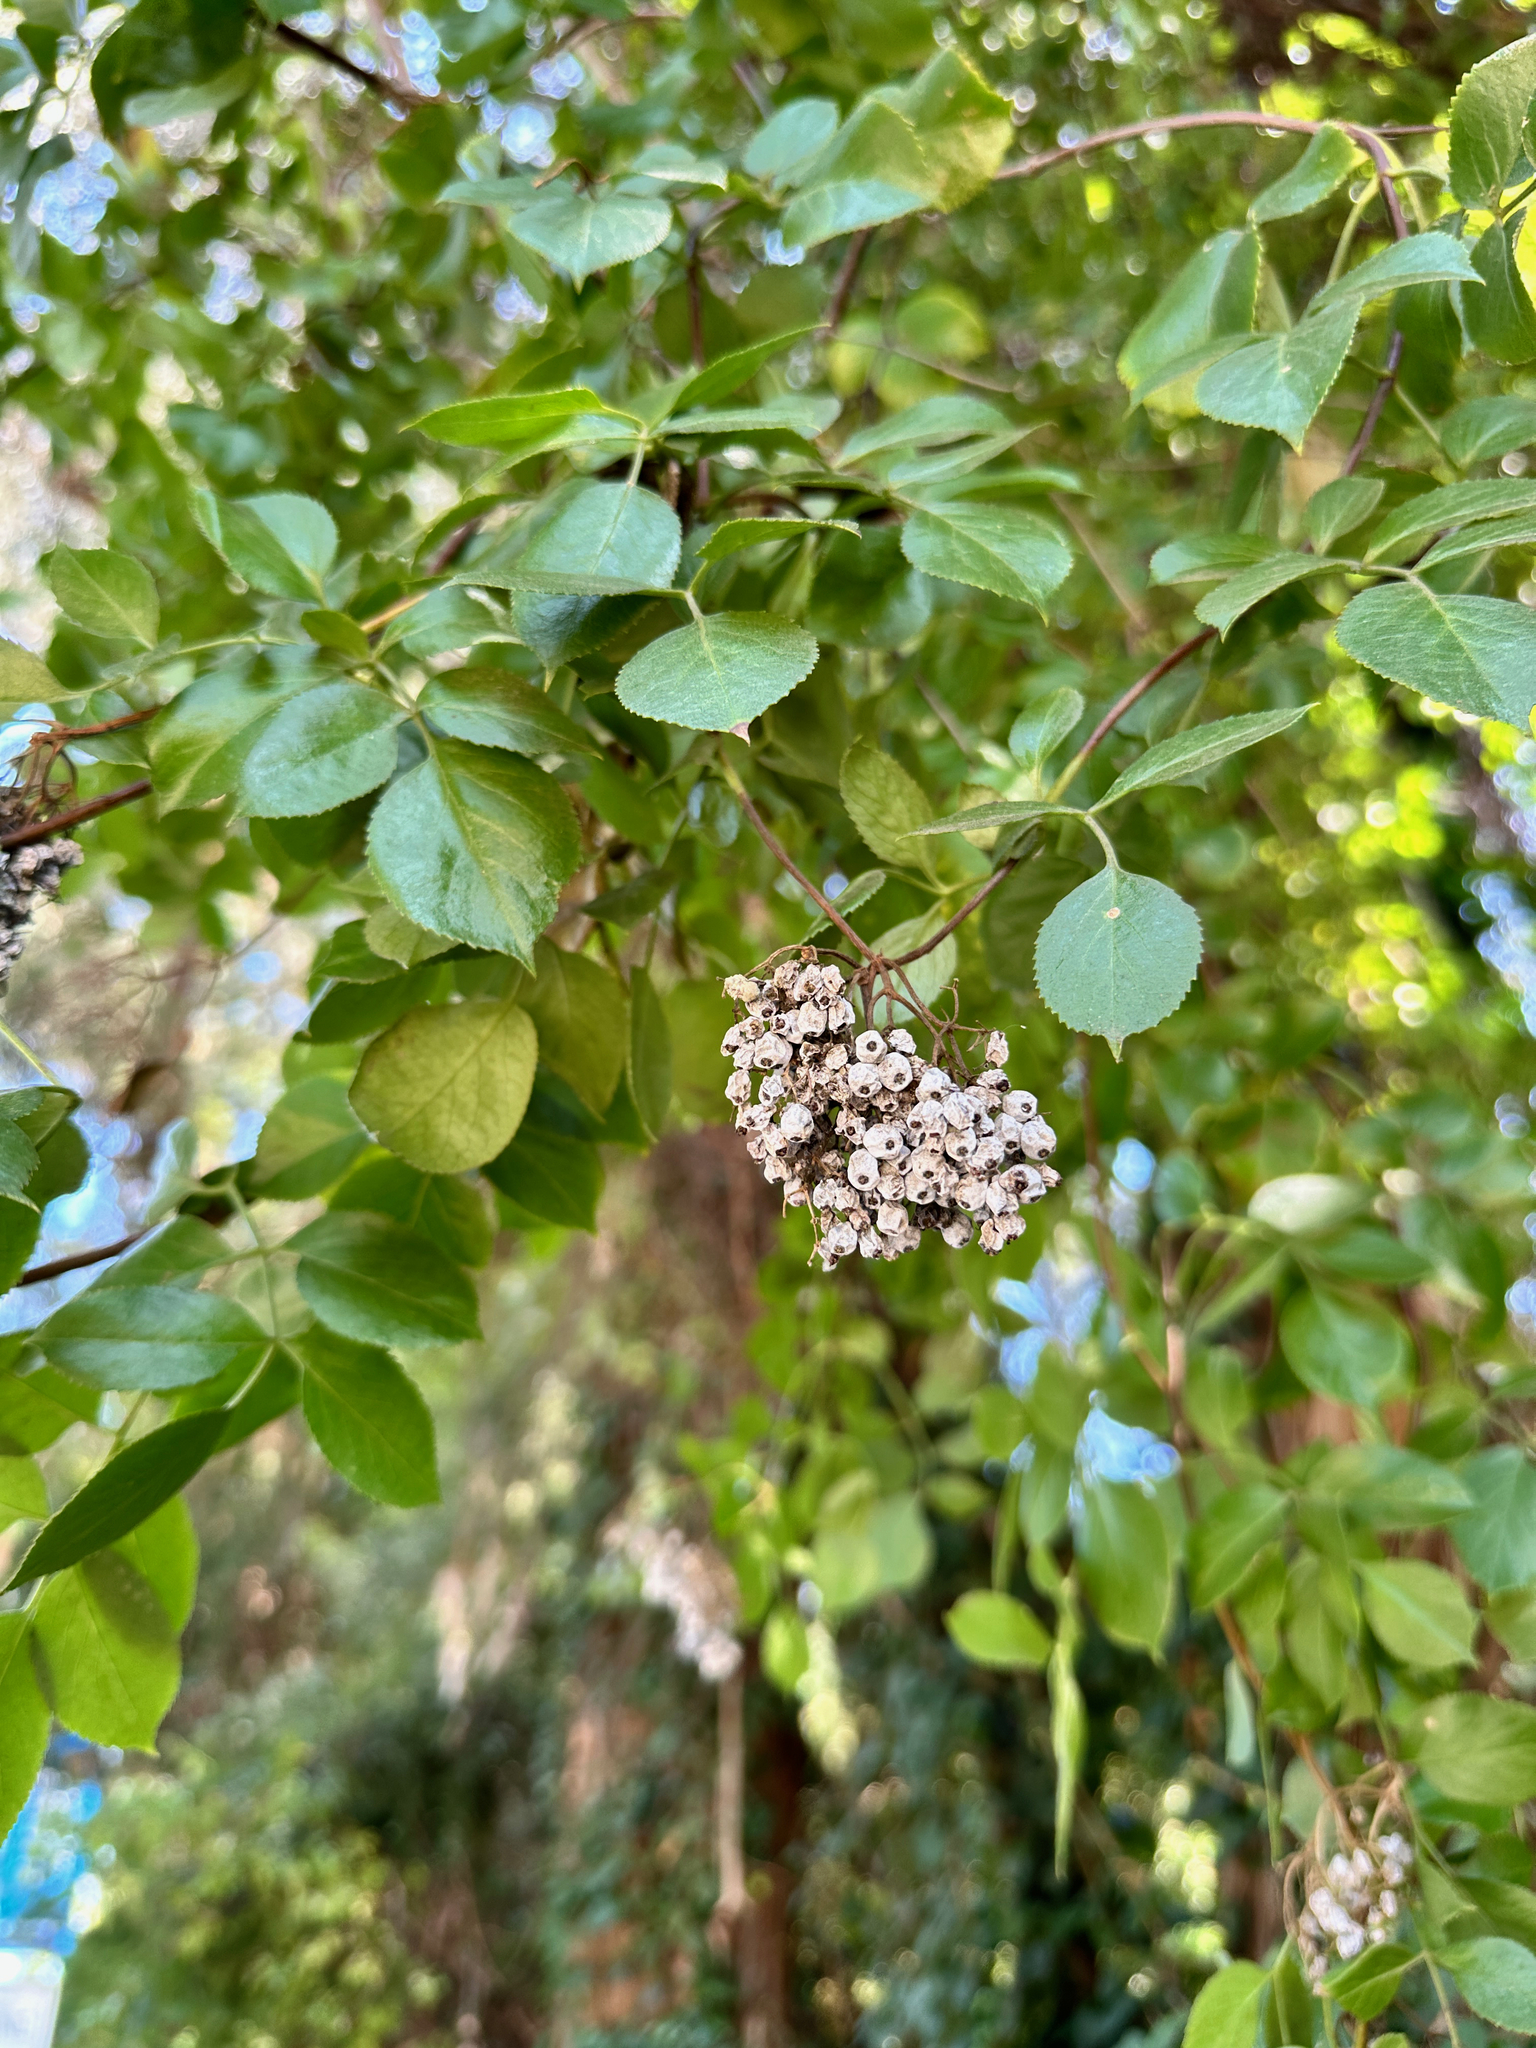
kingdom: Plantae
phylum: Tracheophyta
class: Magnoliopsida
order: Dipsacales
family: Viburnaceae
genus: Sambucus
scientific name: Sambucus cerulea
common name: Blue elder
